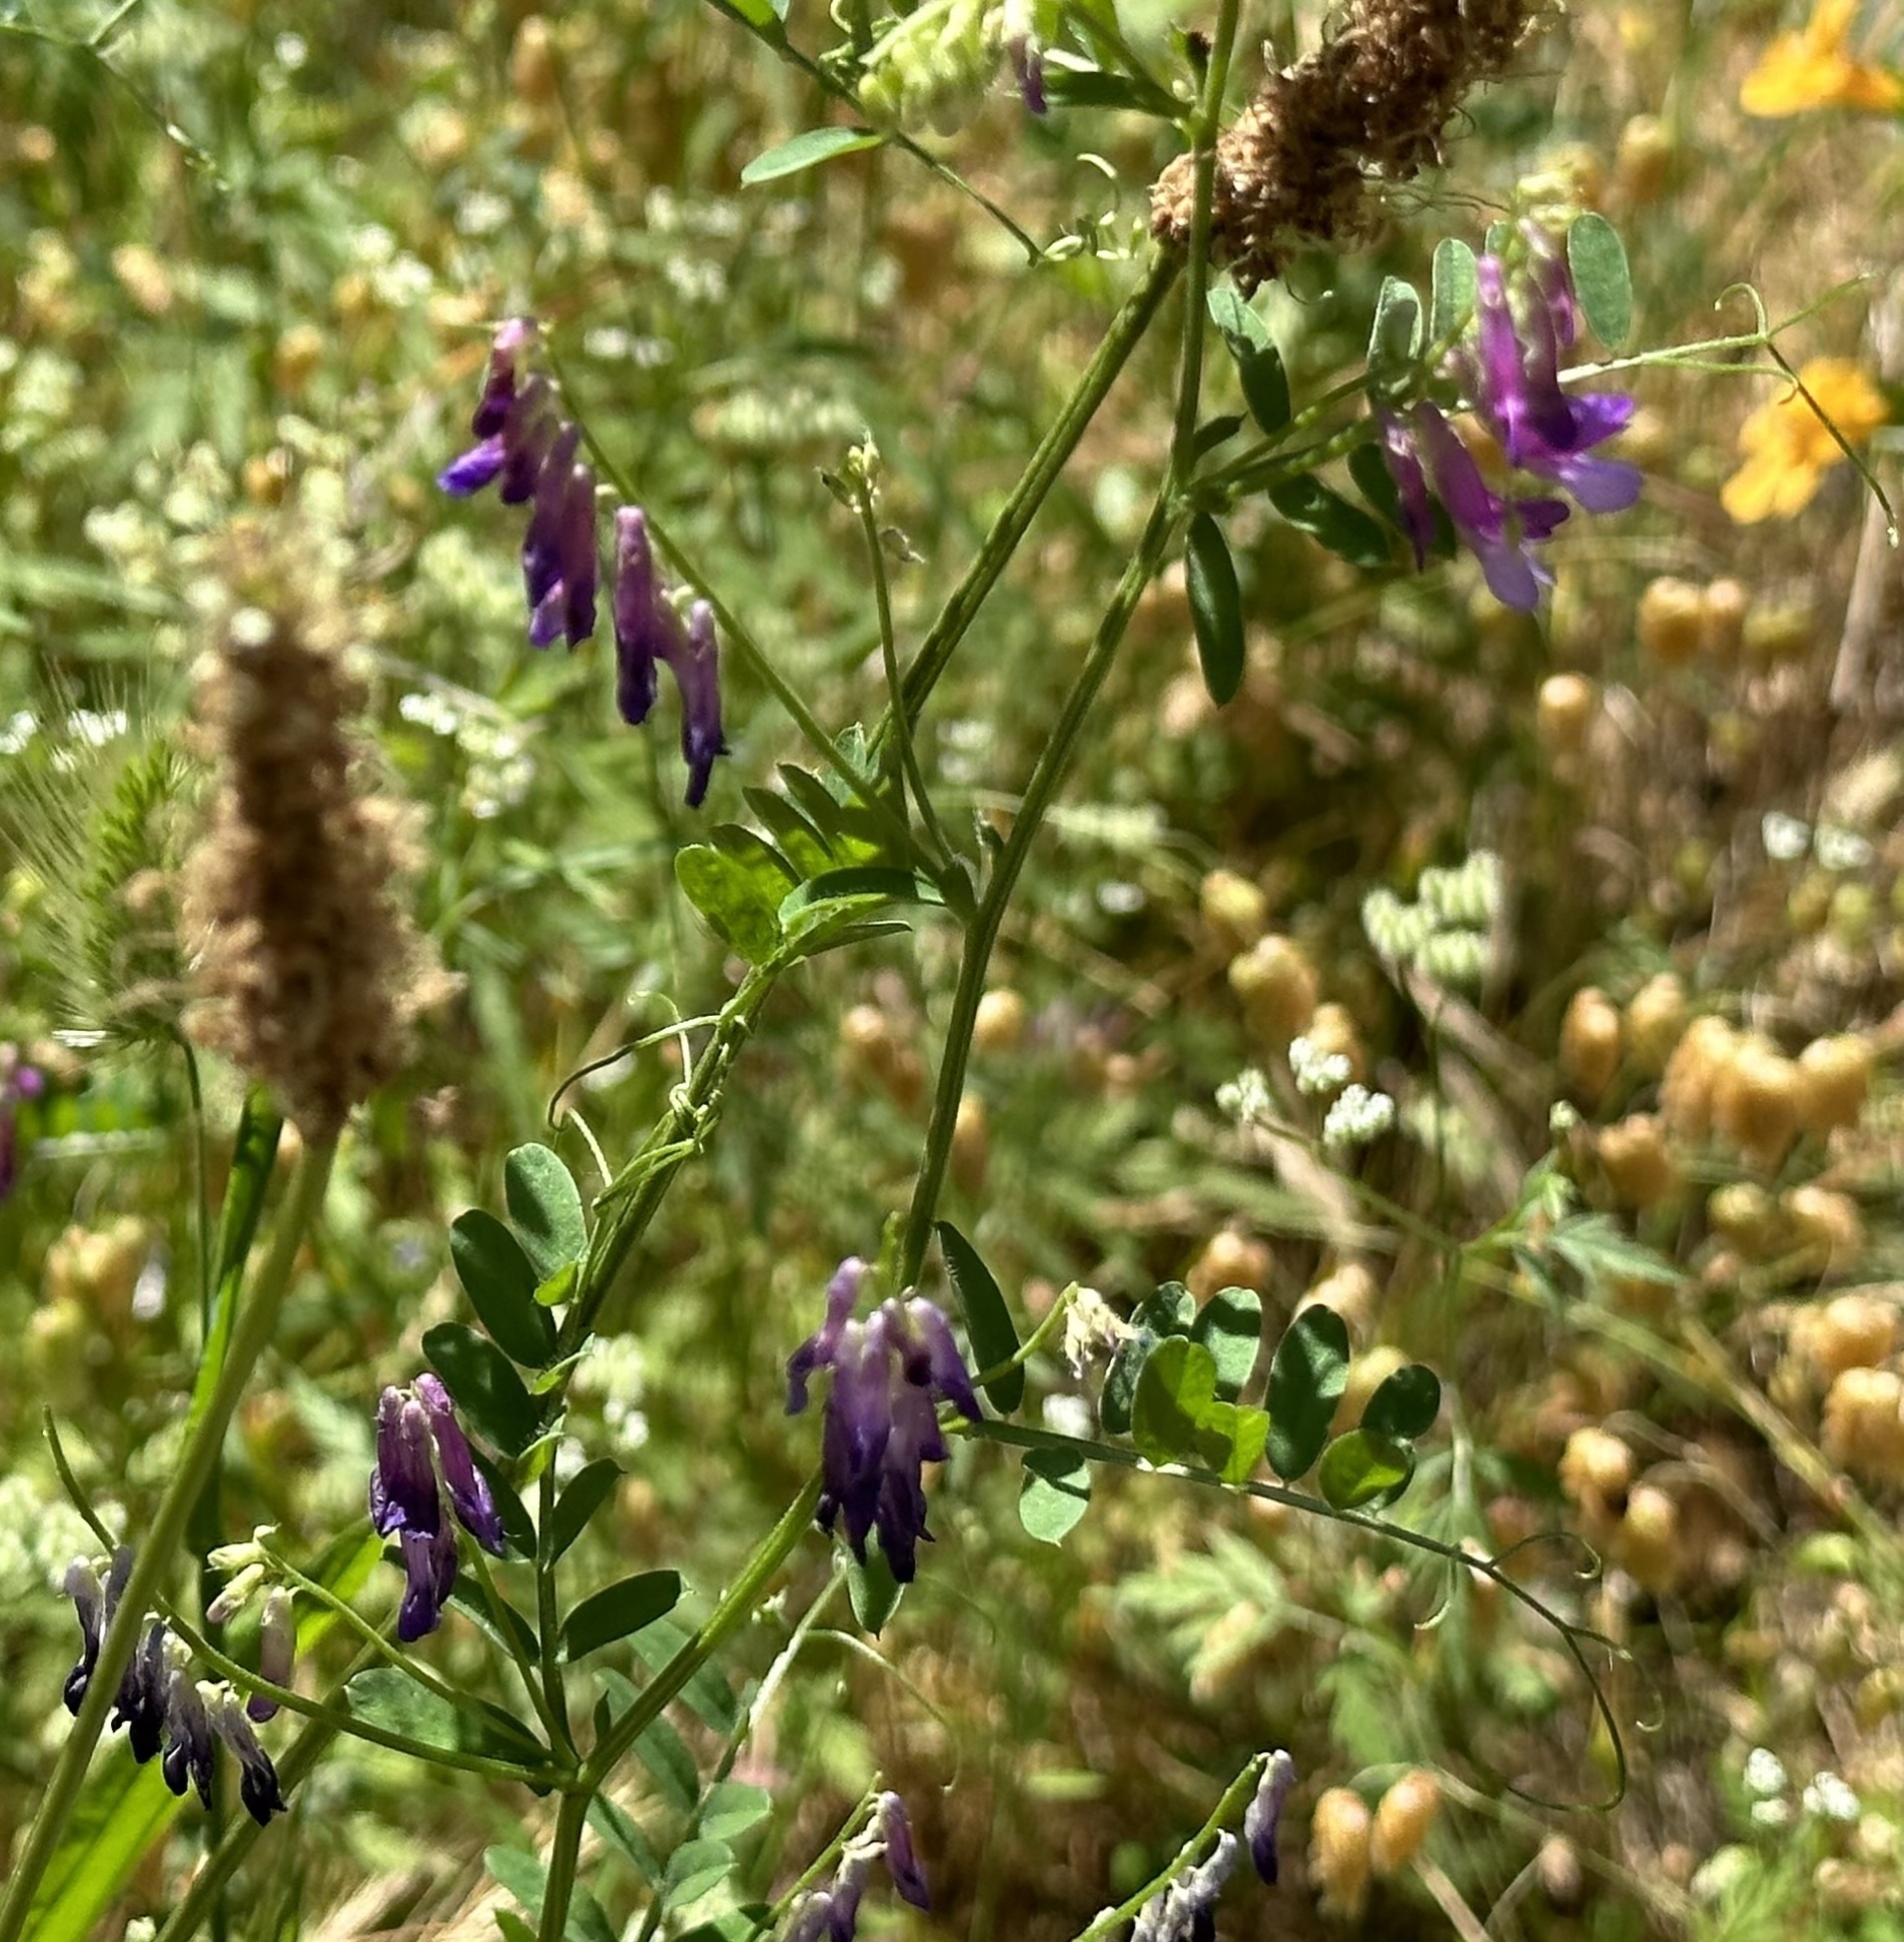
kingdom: Plantae
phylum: Tracheophyta
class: Magnoliopsida
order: Fabales
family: Fabaceae
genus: Vicia
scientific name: Vicia villosa
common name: Fodder vetch
